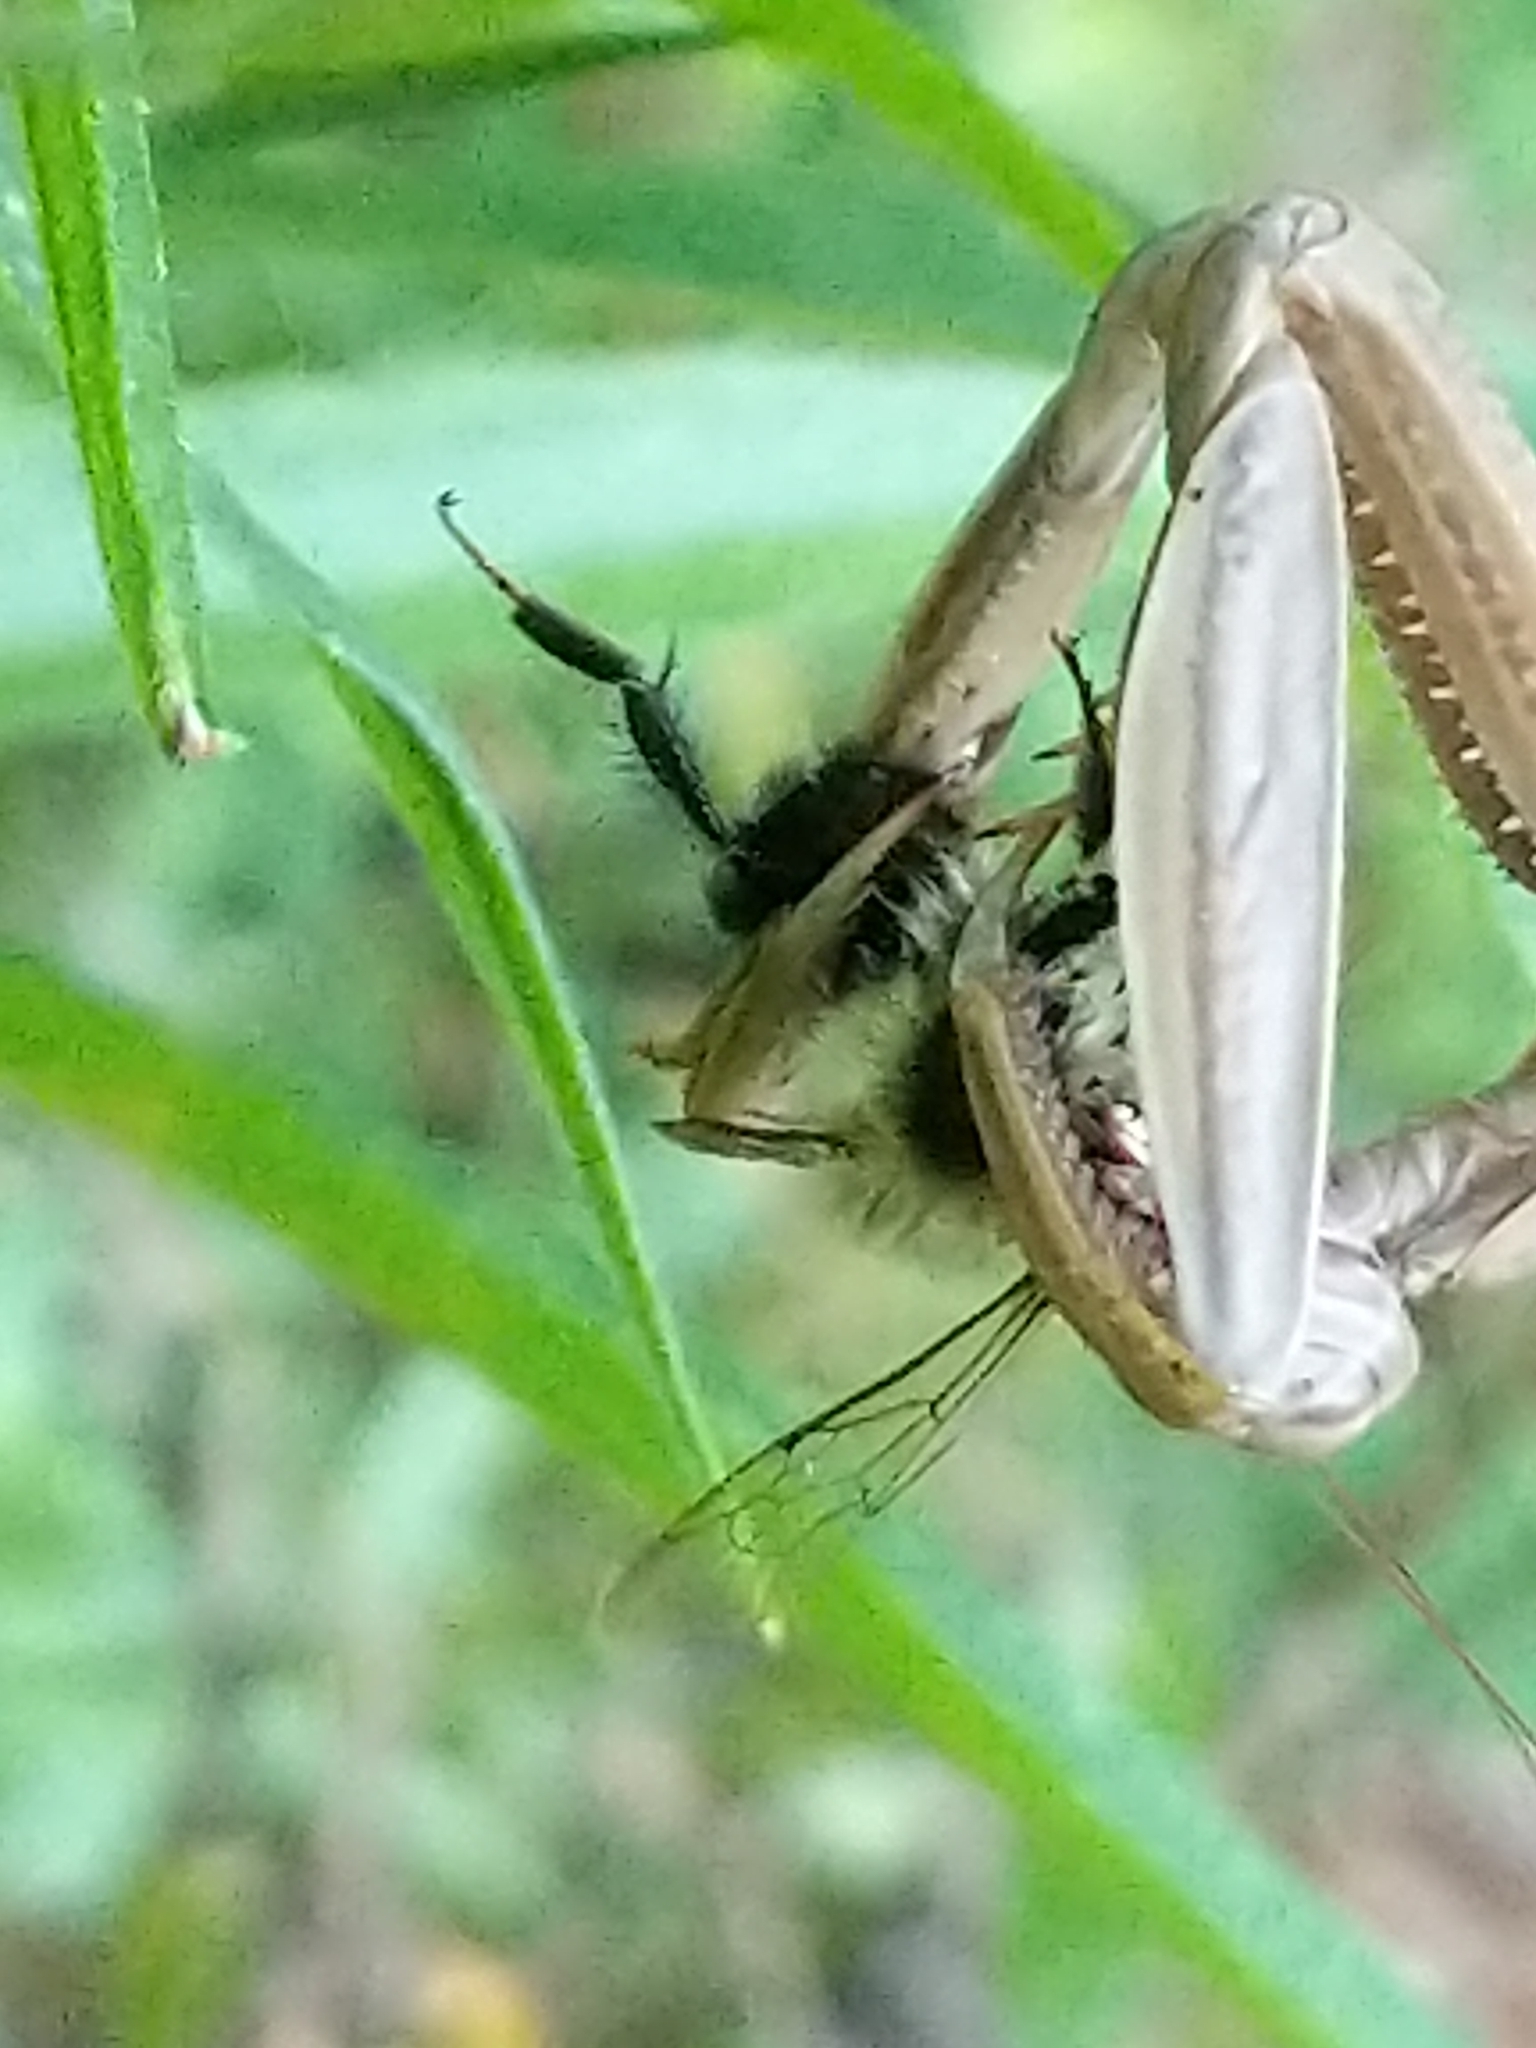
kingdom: Animalia
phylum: Arthropoda
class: Insecta
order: Hymenoptera
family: Apidae
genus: Bombus
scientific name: Bombus
